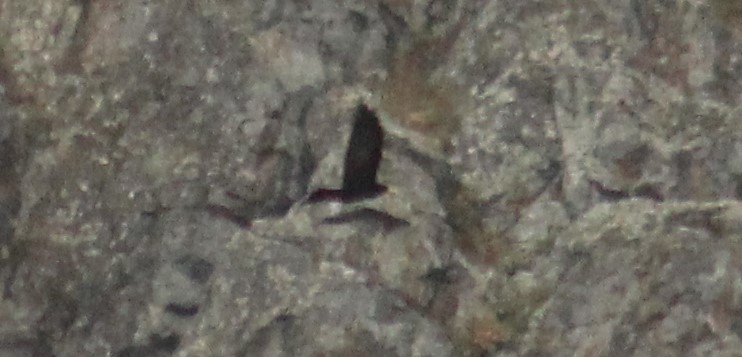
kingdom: Animalia
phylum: Chordata
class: Aves
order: Passeriformes
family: Corvidae
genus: Pyrrhocorax
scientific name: Pyrrhocorax graculus
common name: Alpine chough
